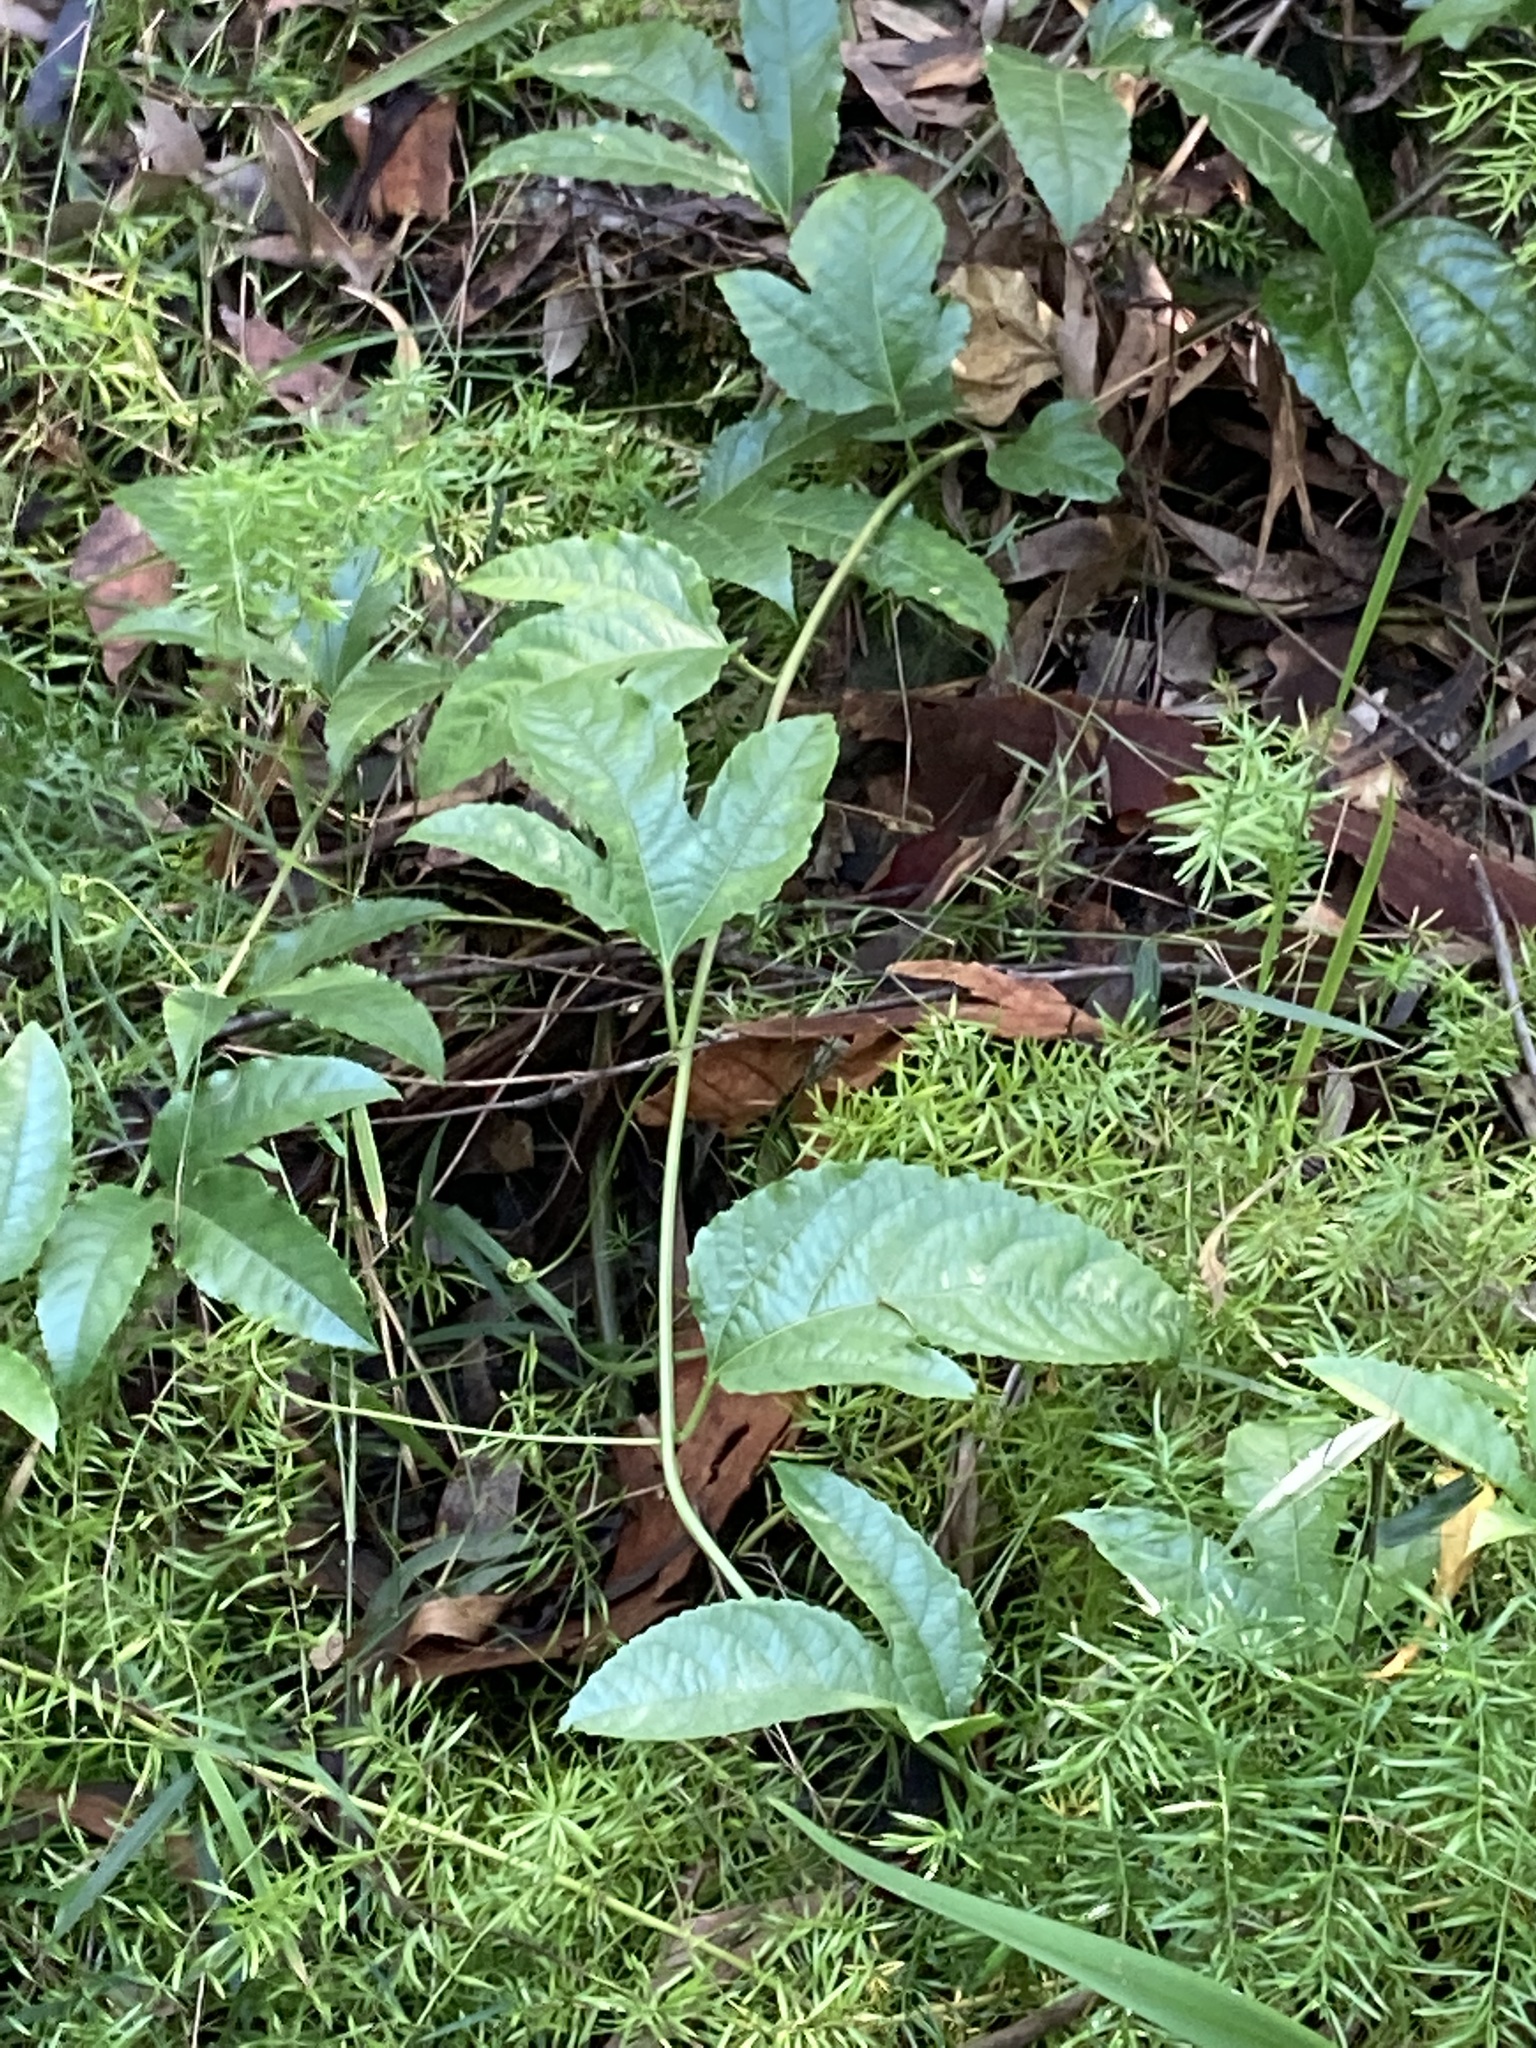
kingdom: Plantae
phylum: Tracheophyta
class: Magnoliopsida
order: Malpighiales
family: Passifloraceae
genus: Passiflora
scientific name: Passiflora edulis
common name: Purple granadilla
